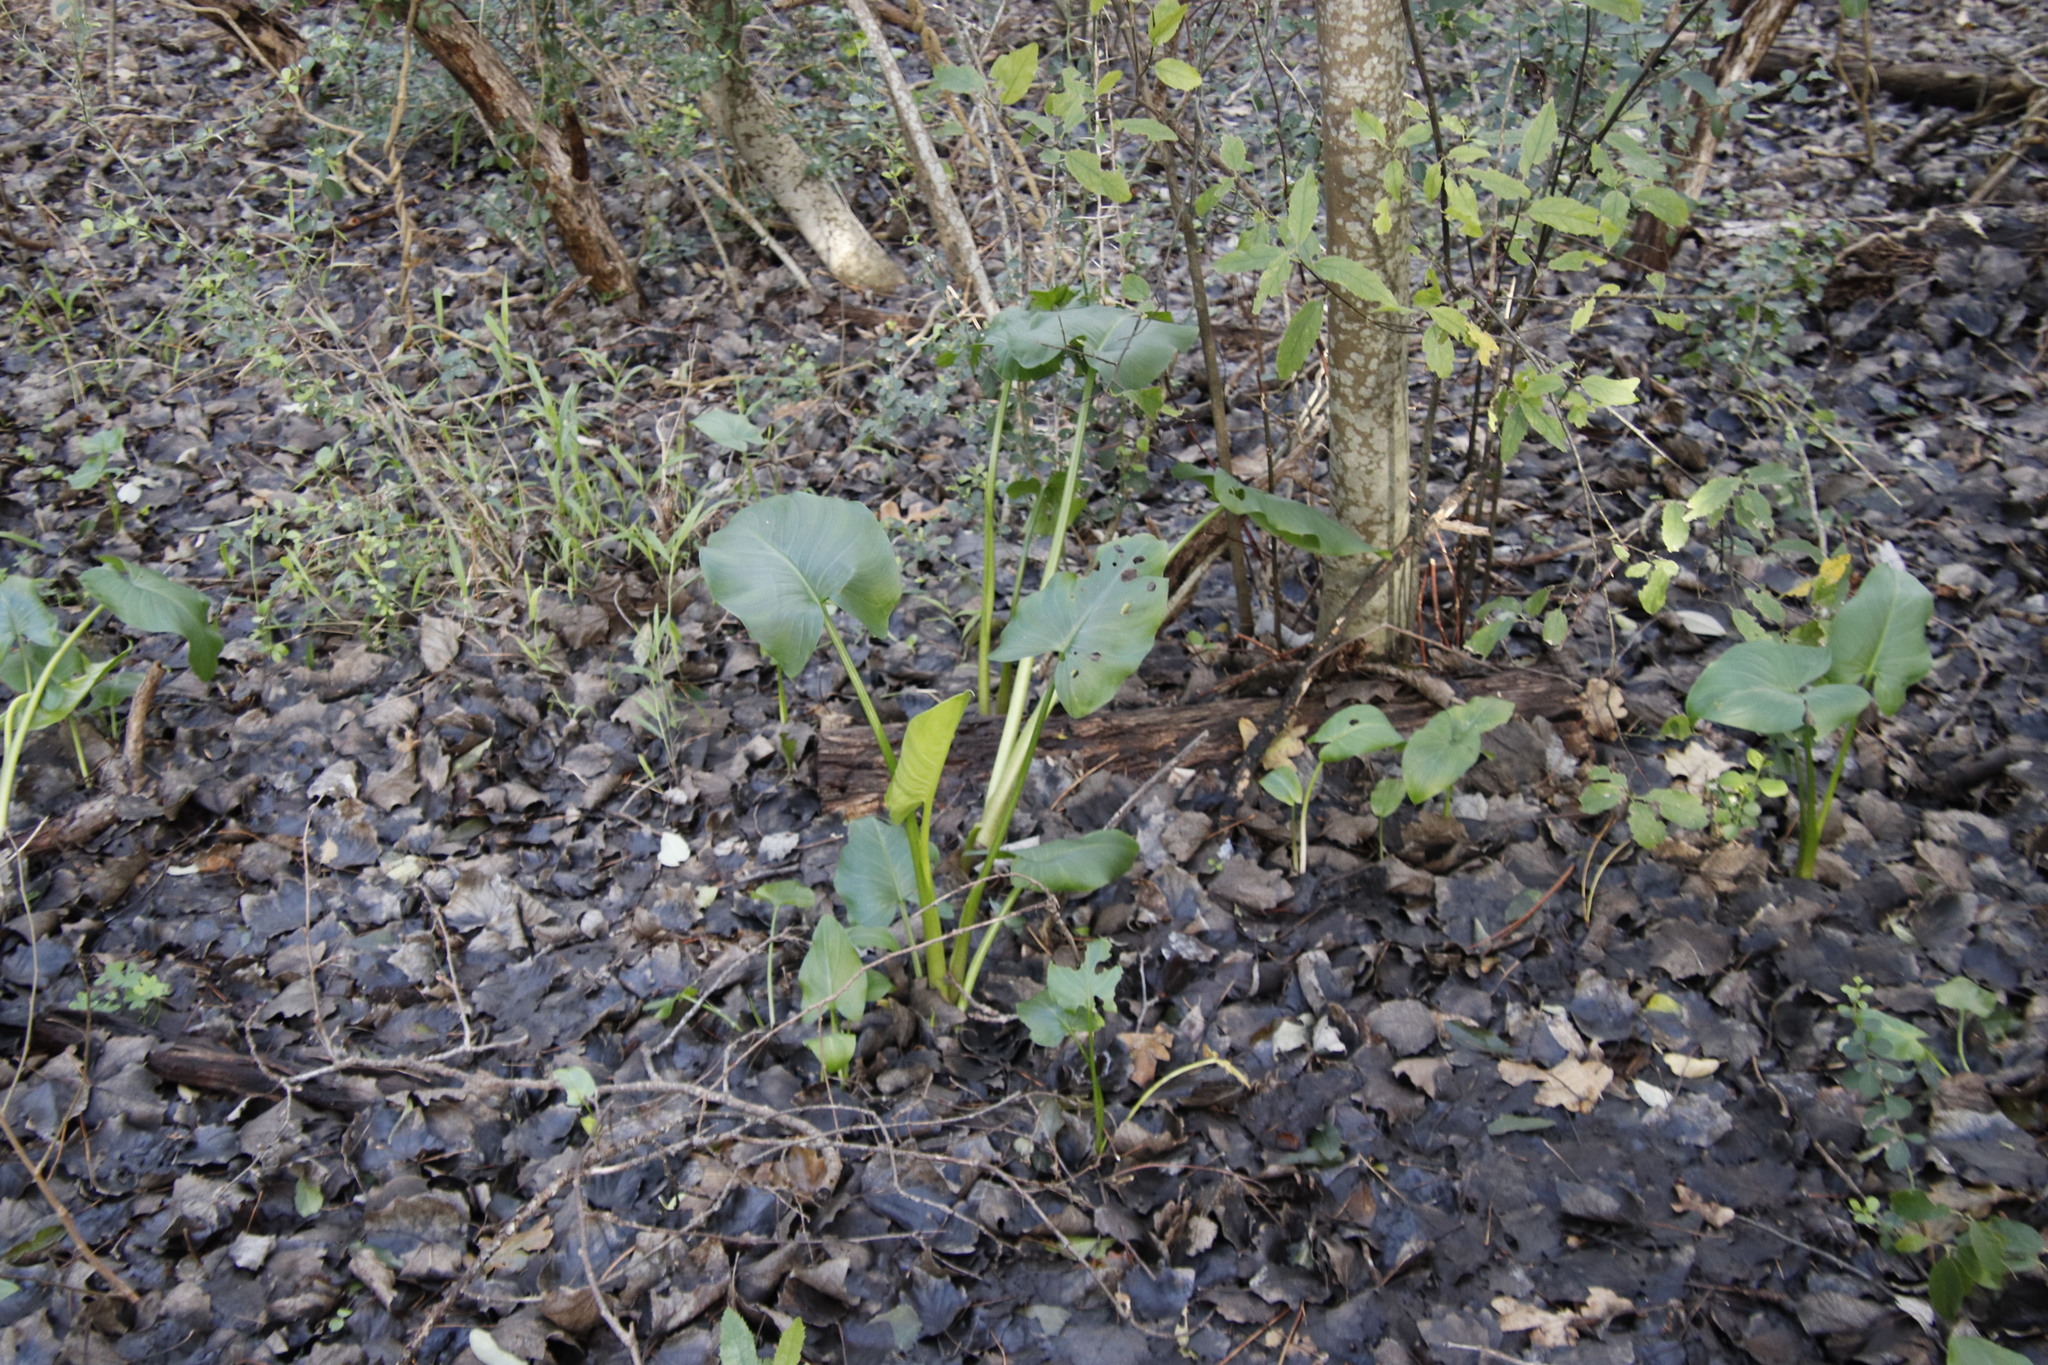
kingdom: Plantae
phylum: Tracheophyta
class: Liliopsida
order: Alismatales
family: Araceae
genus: Zantedeschia
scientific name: Zantedeschia aethiopica
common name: Altar-lily
